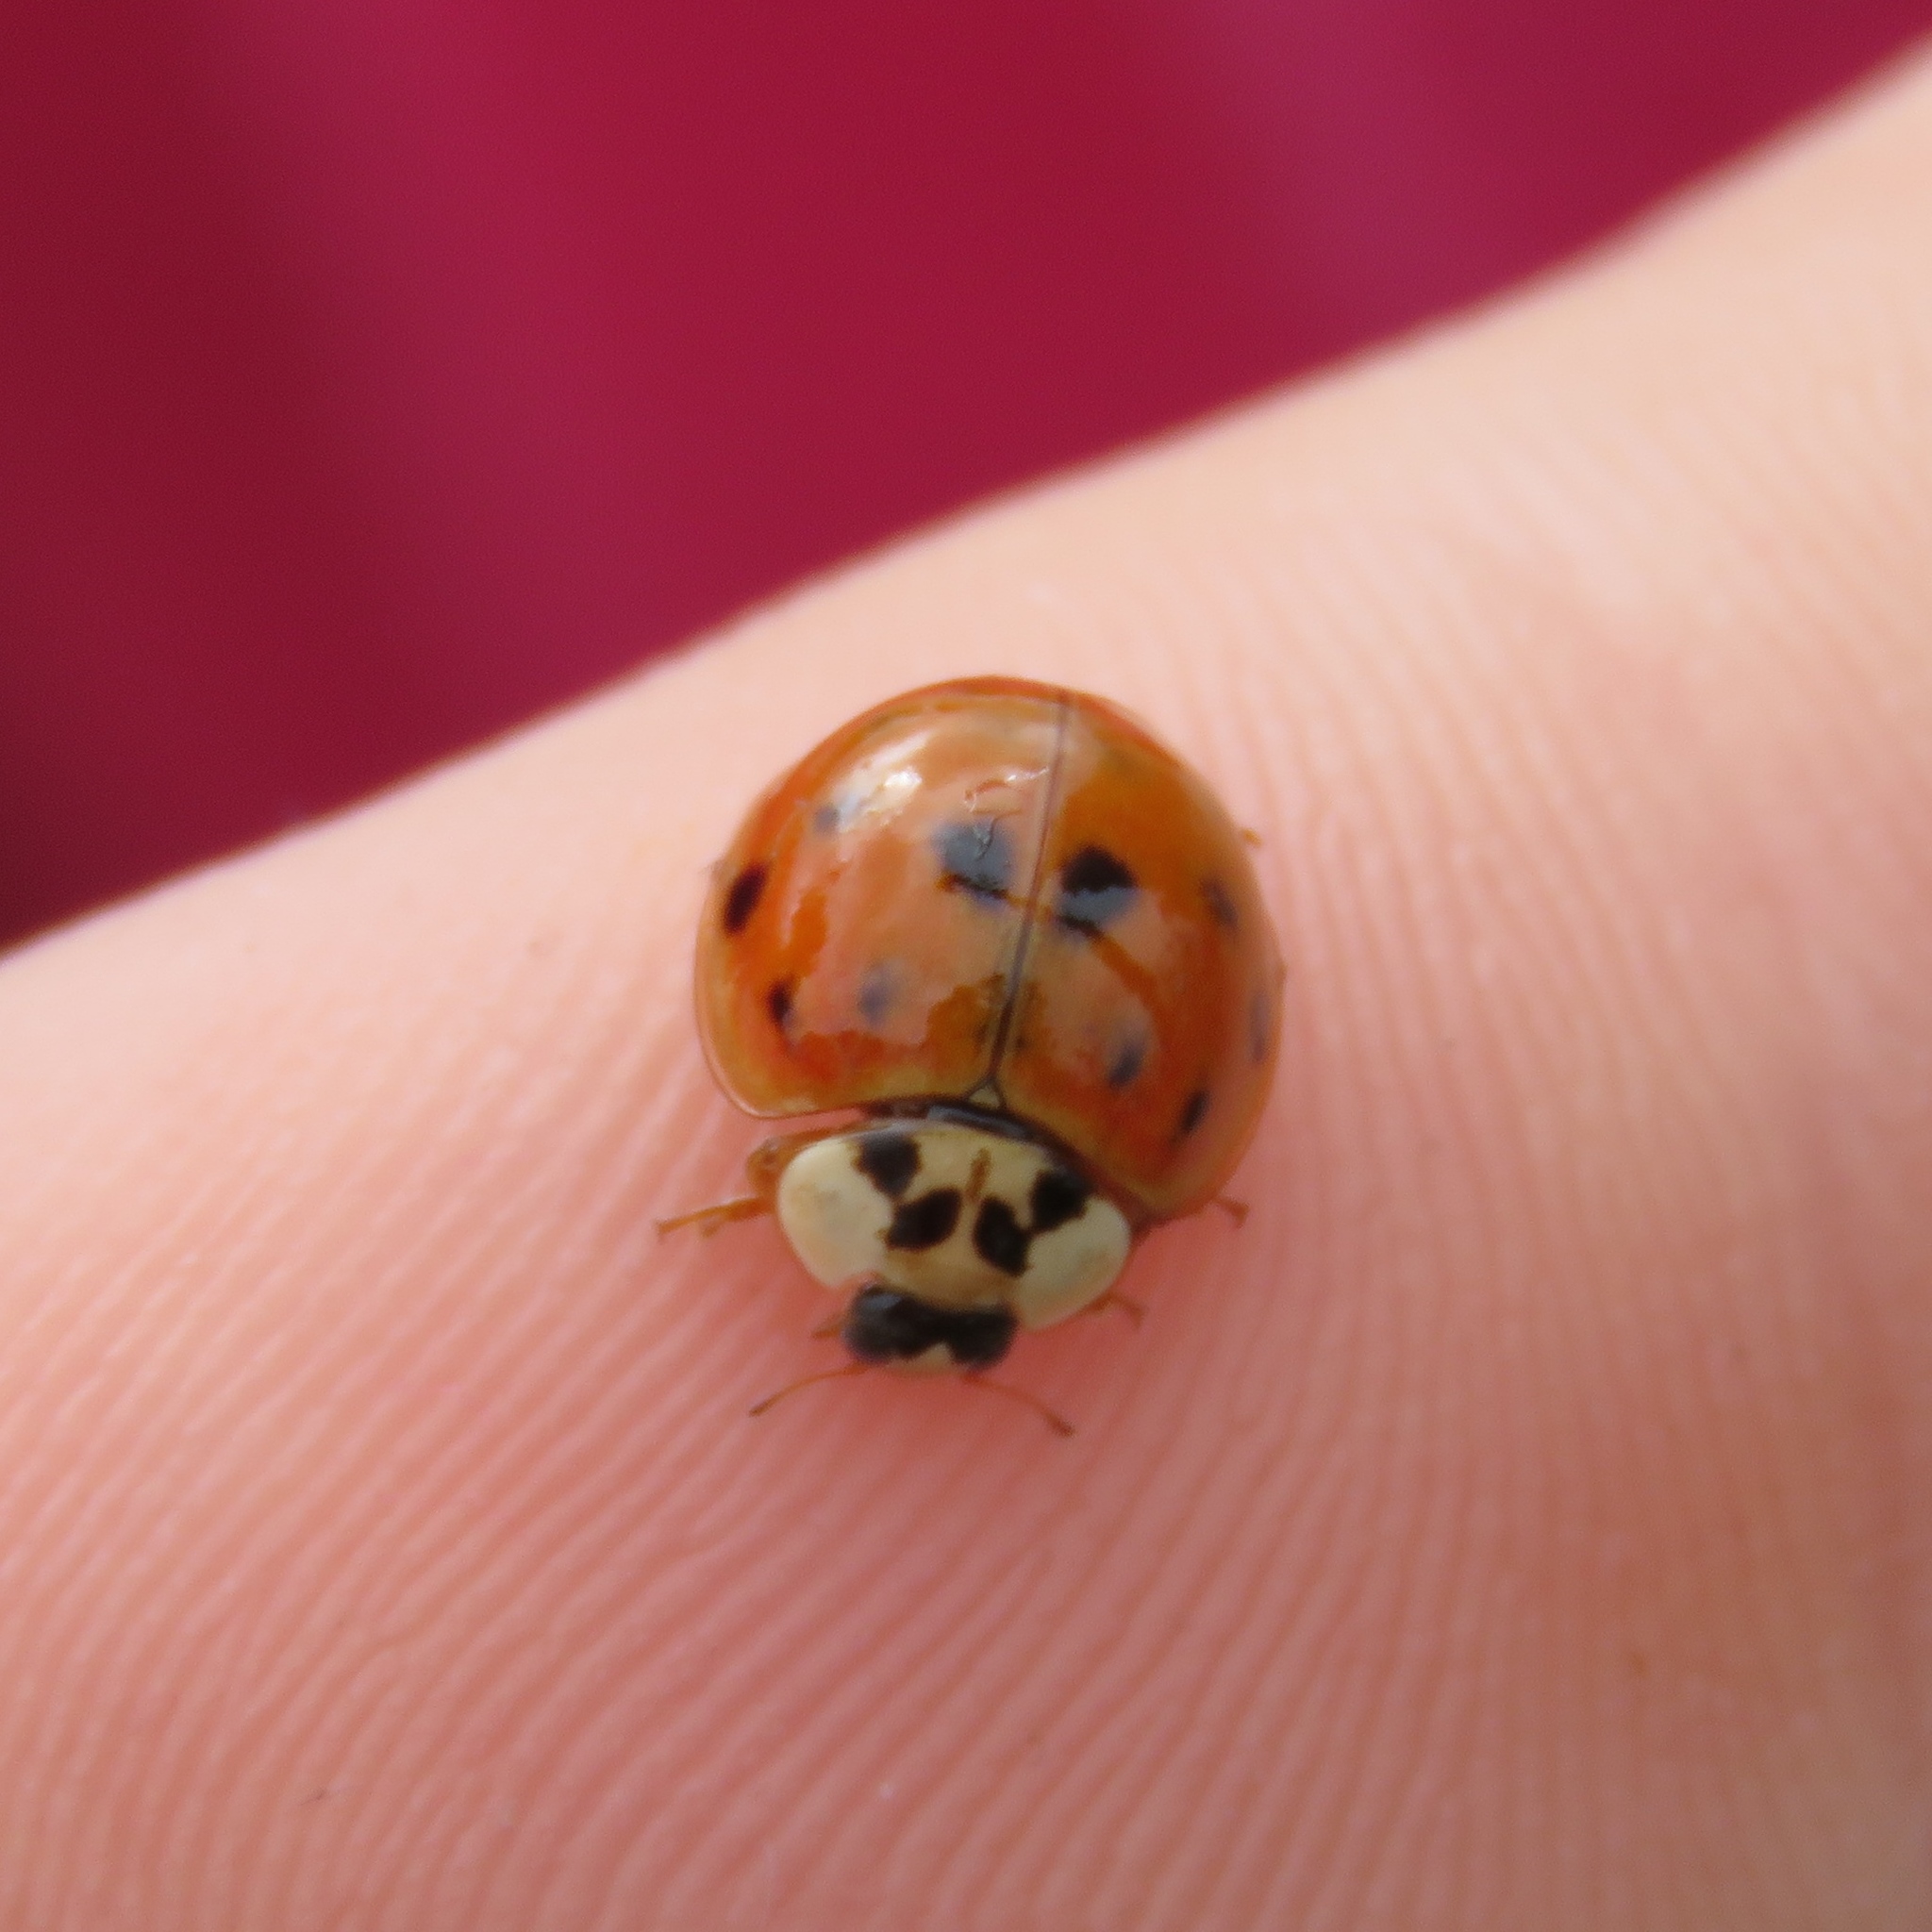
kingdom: Animalia
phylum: Arthropoda
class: Insecta
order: Coleoptera
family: Coccinellidae
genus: Harmonia
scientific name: Harmonia axyridis
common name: Harlequin ladybird
